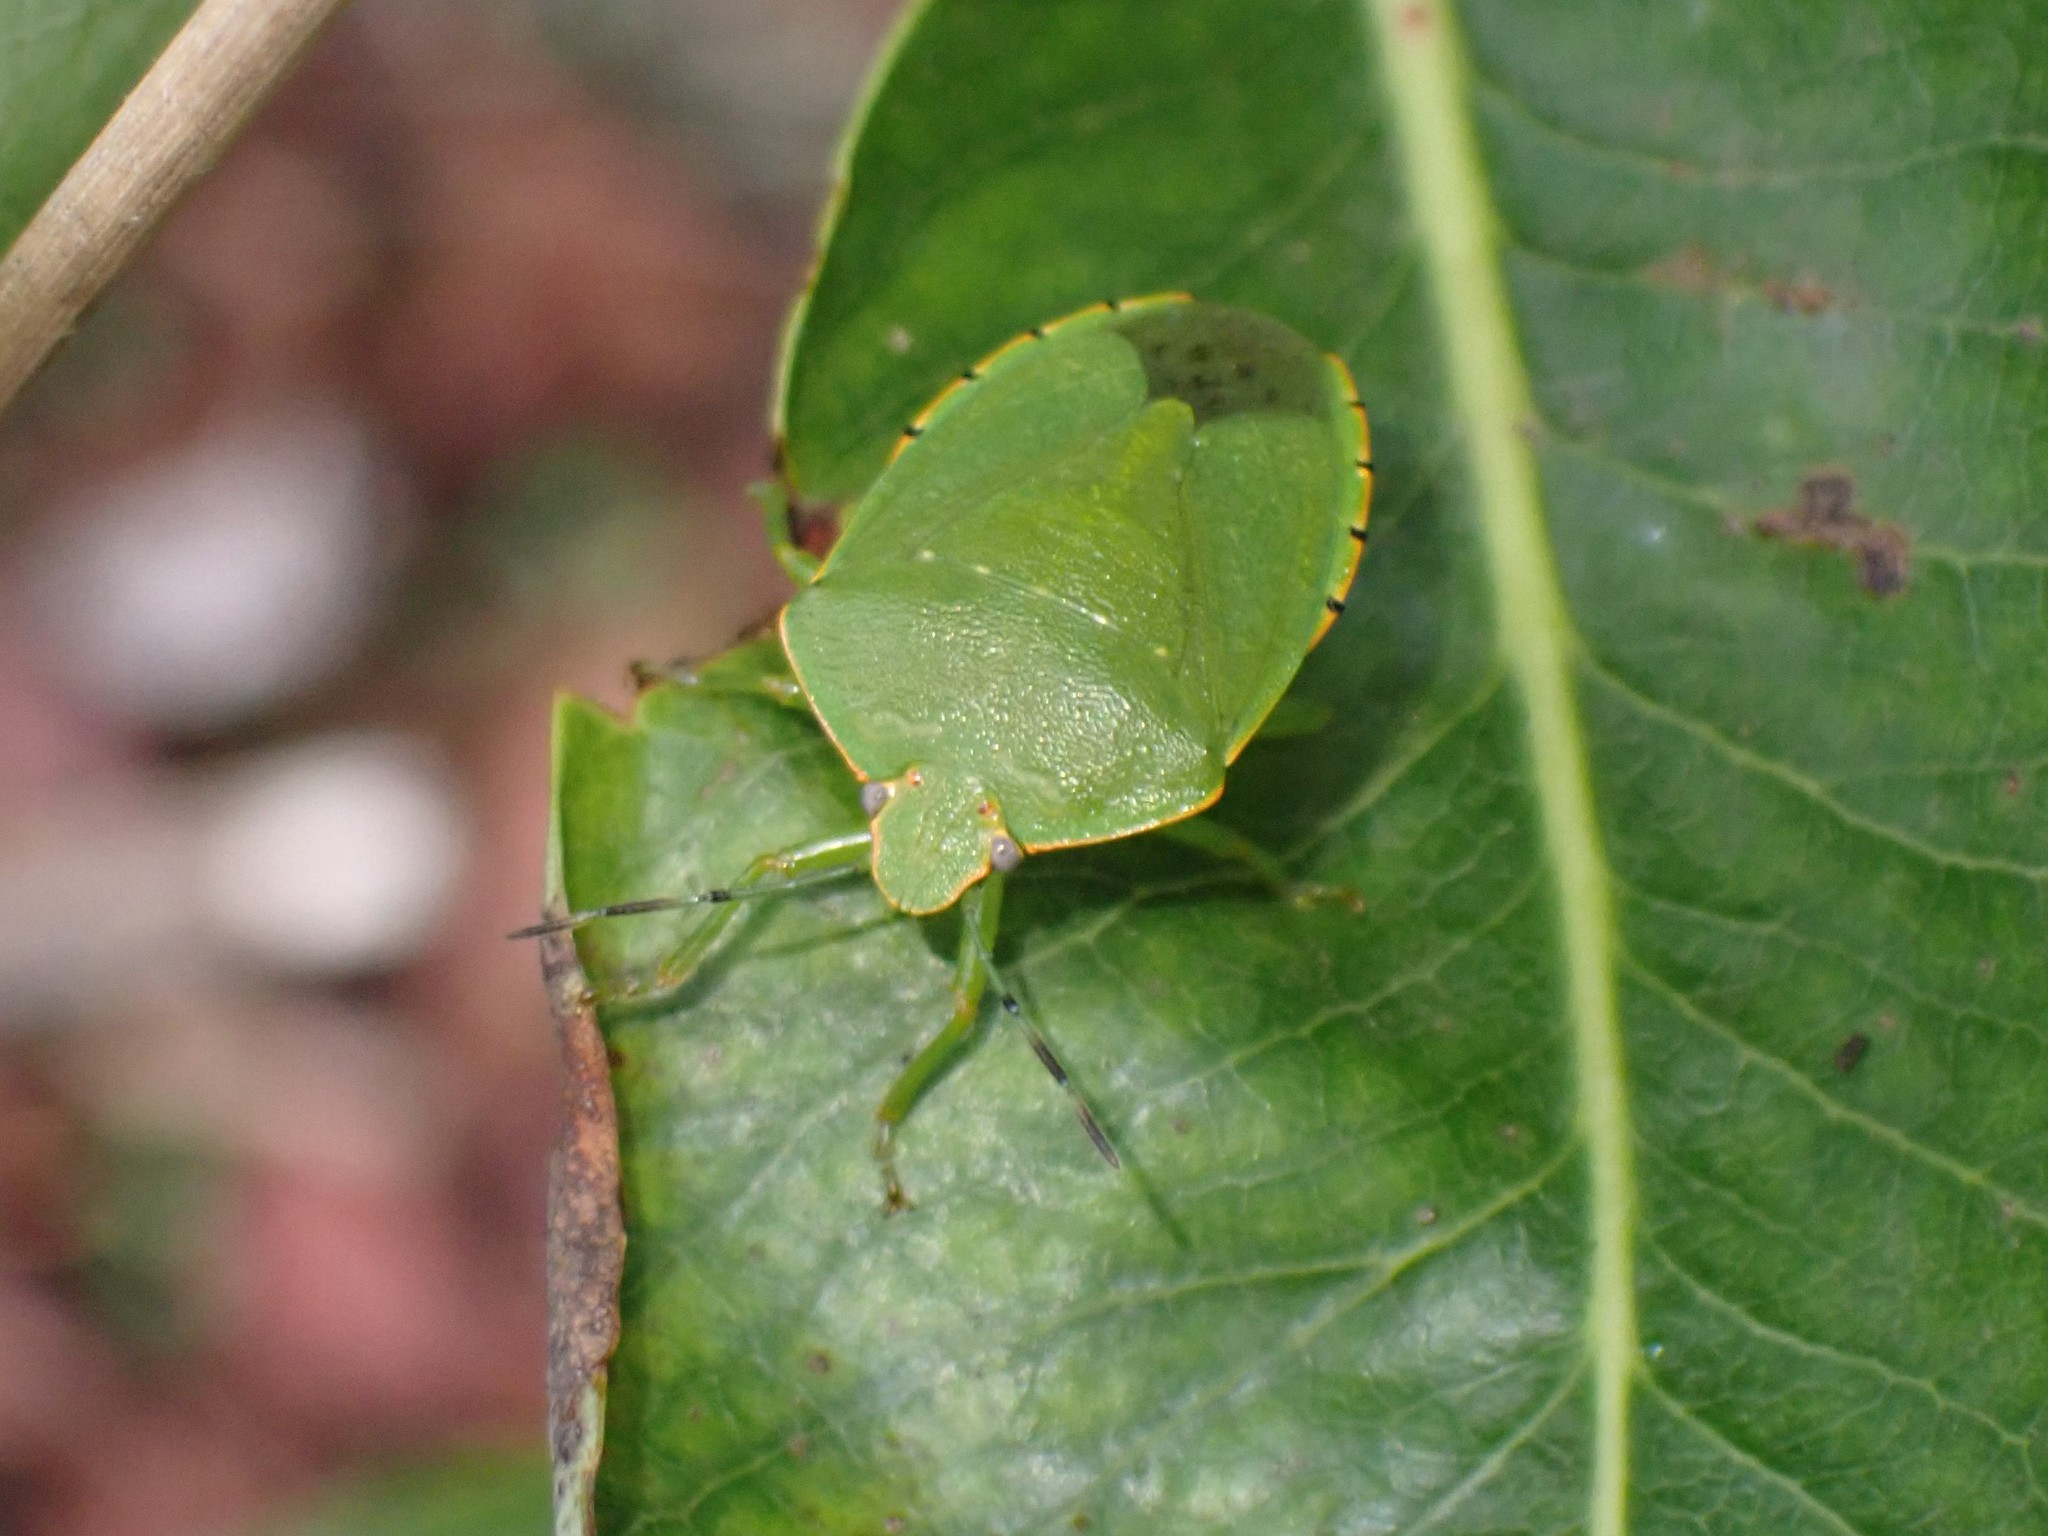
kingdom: Animalia
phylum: Arthropoda
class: Insecta
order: Hemiptera
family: Pentatomidae
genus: Chinavia
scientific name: Chinavia hilaris
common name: Green stink bug
